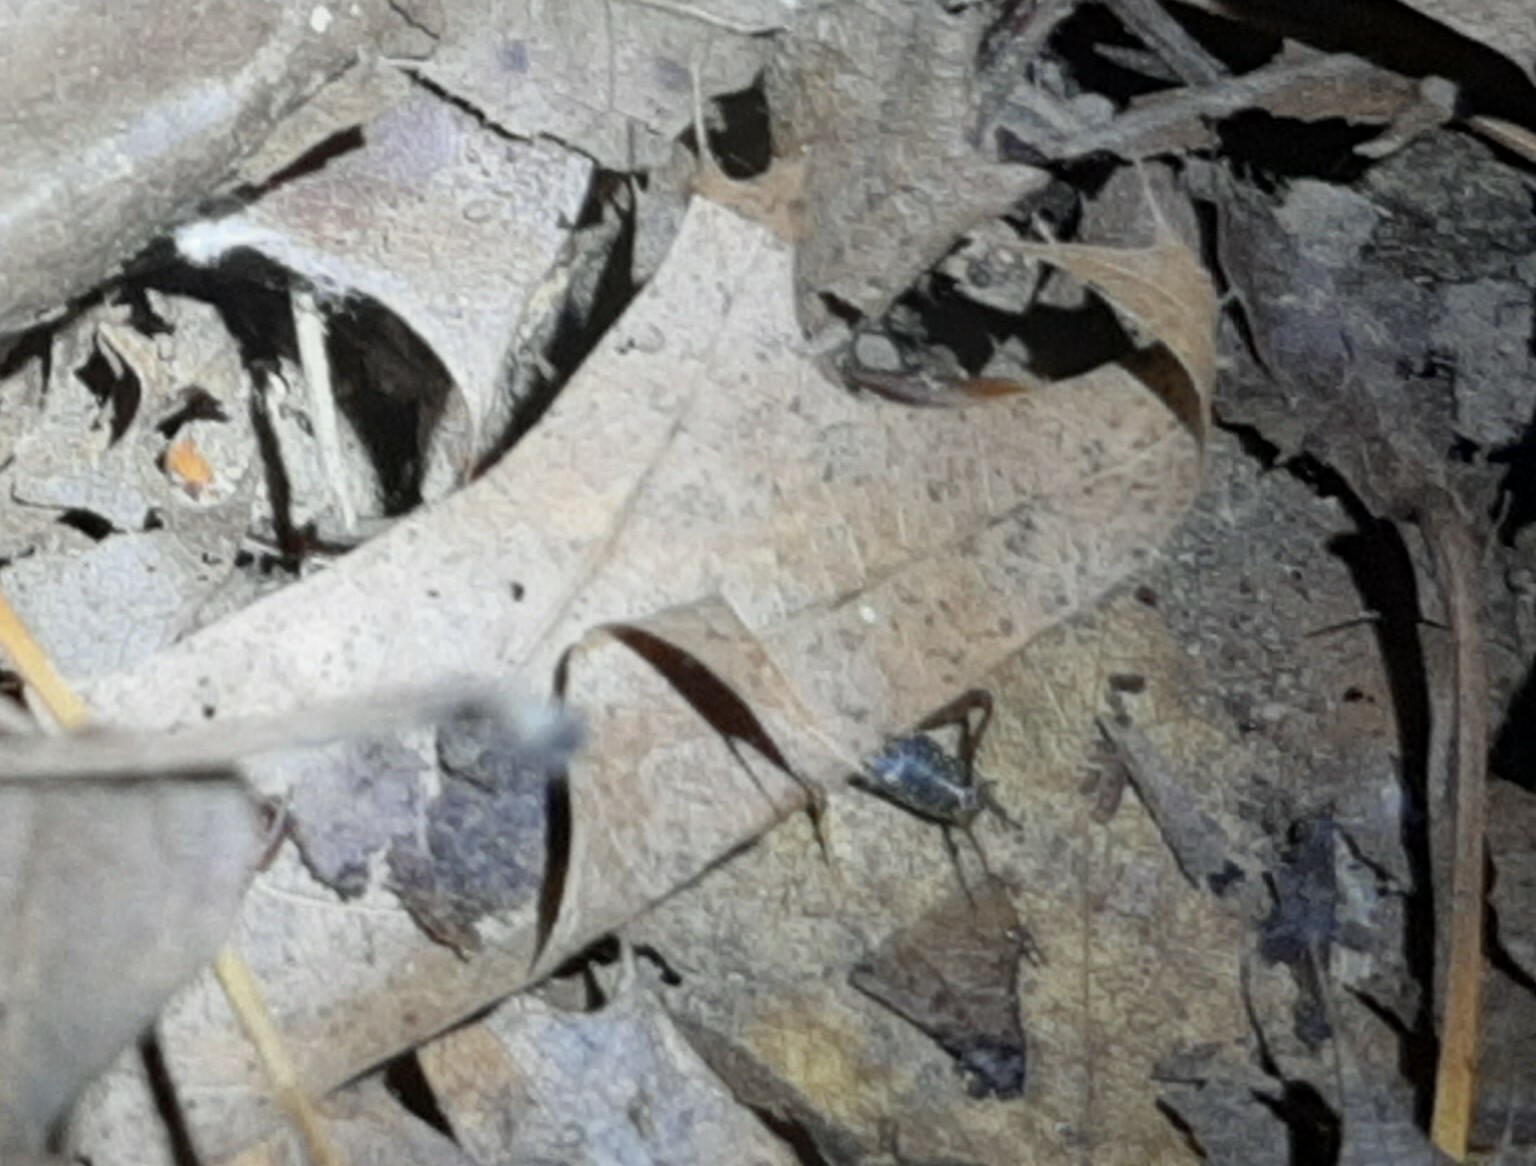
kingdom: Animalia
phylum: Arthropoda
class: Insecta
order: Orthoptera
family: Trigonidiidae
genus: Nemobius
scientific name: Nemobius sylvestris
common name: Wood-cricket
